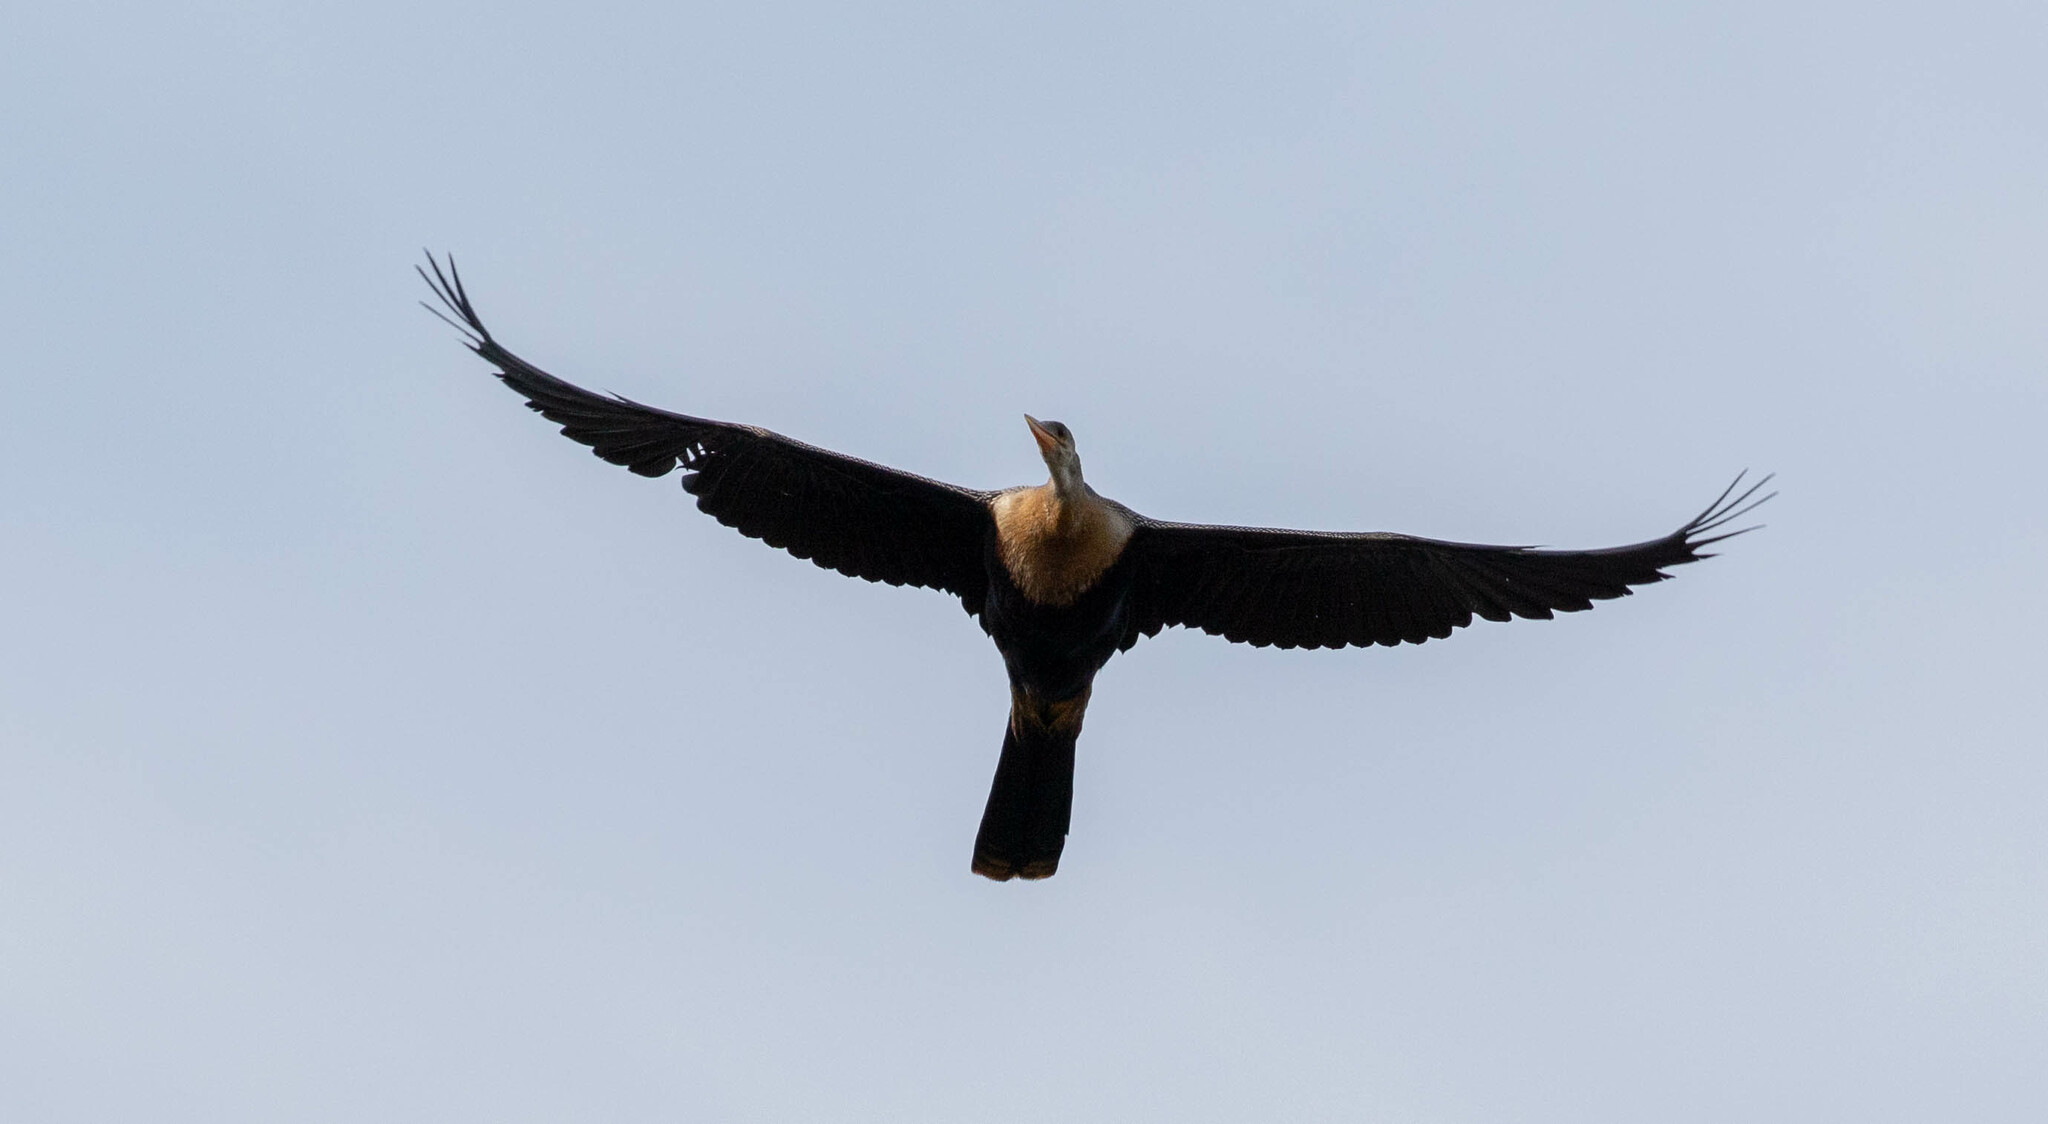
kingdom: Animalia
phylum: Chordata
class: Aves
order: Suliformes
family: Anhingidae
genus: Anhinga
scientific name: Anhinga anhinga
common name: Anhinga
